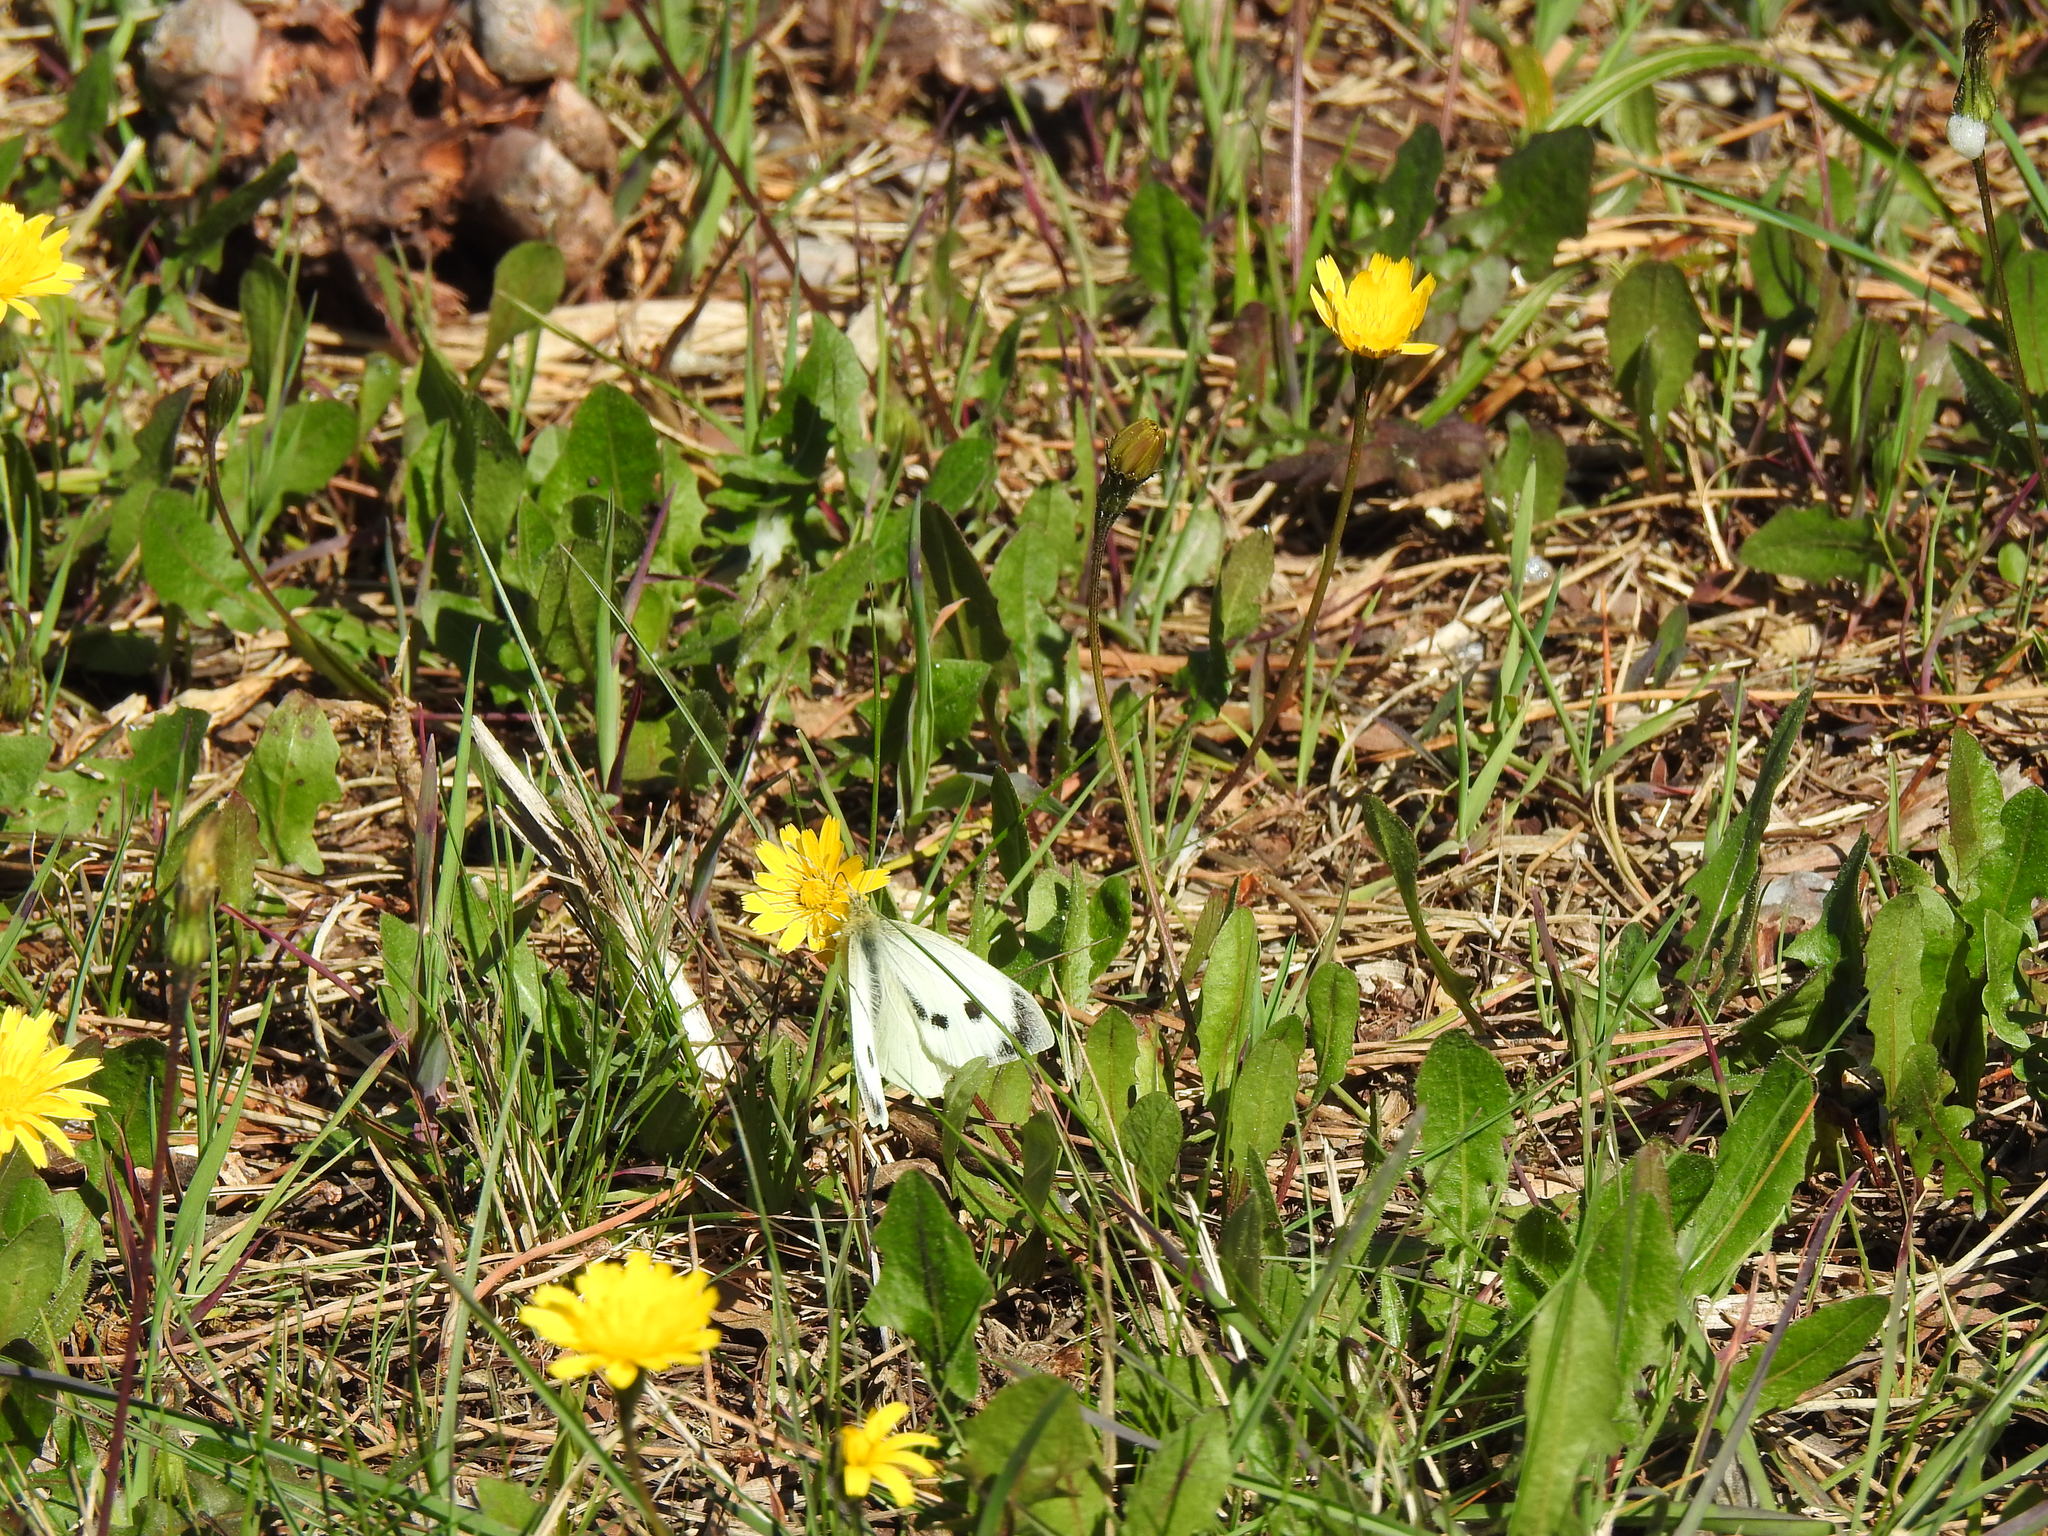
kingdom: Animalia
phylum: Arthropoda
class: Insecta
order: Lepidoptera
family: Pieridae
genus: Pieris
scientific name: Pieris brassicae
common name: Large white
